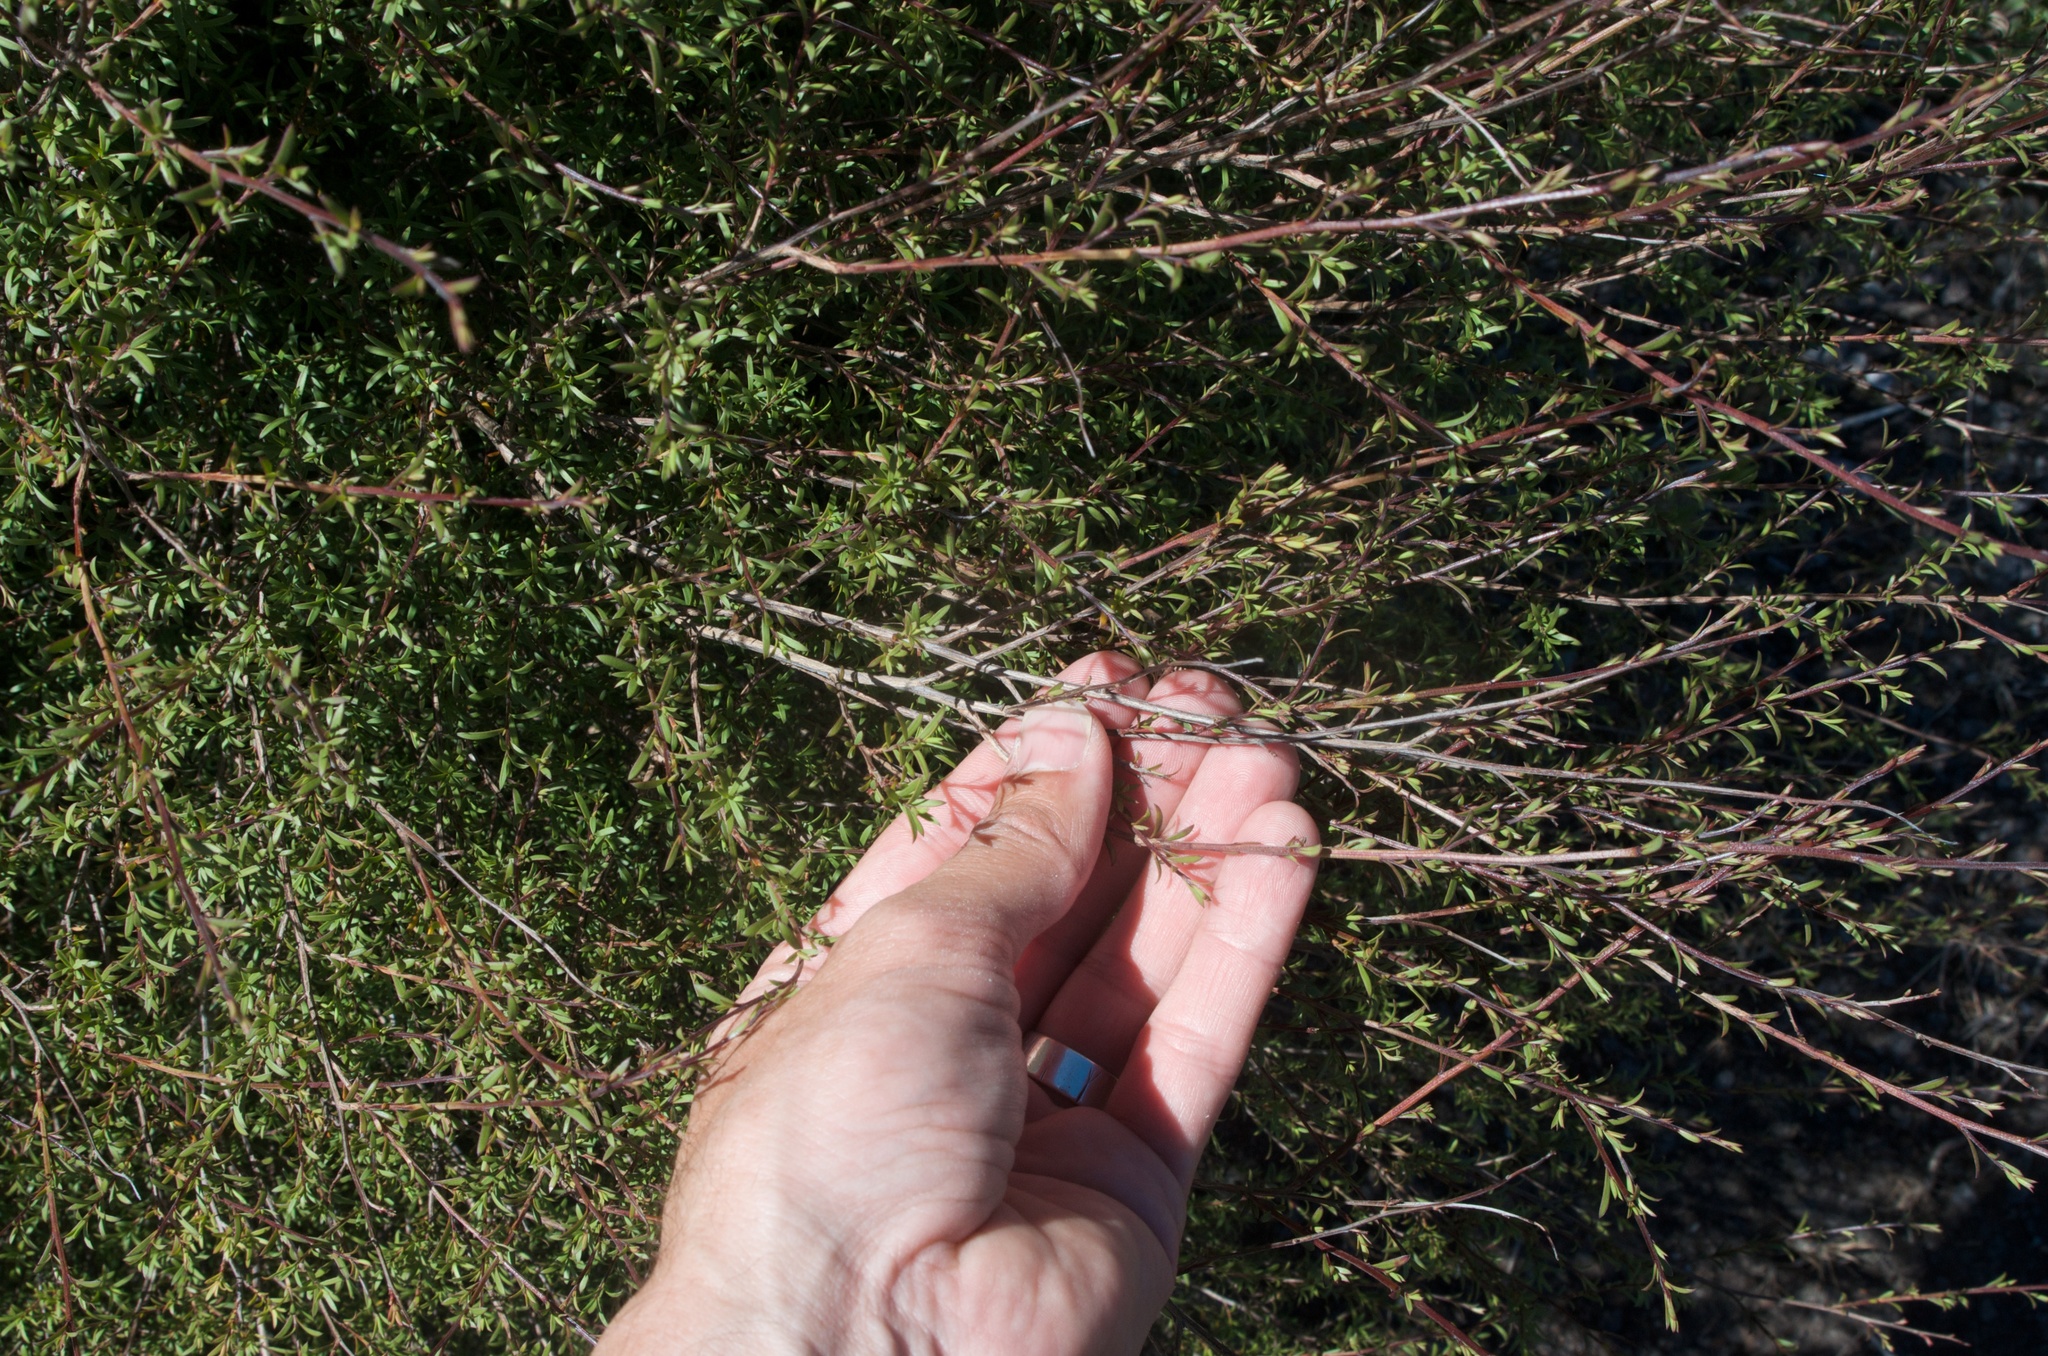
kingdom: Plantae
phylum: Tracheophyta
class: Magnoliopsida
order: Myrtales
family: Myrtaceae
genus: Kunzea
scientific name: Kunzea robusta
